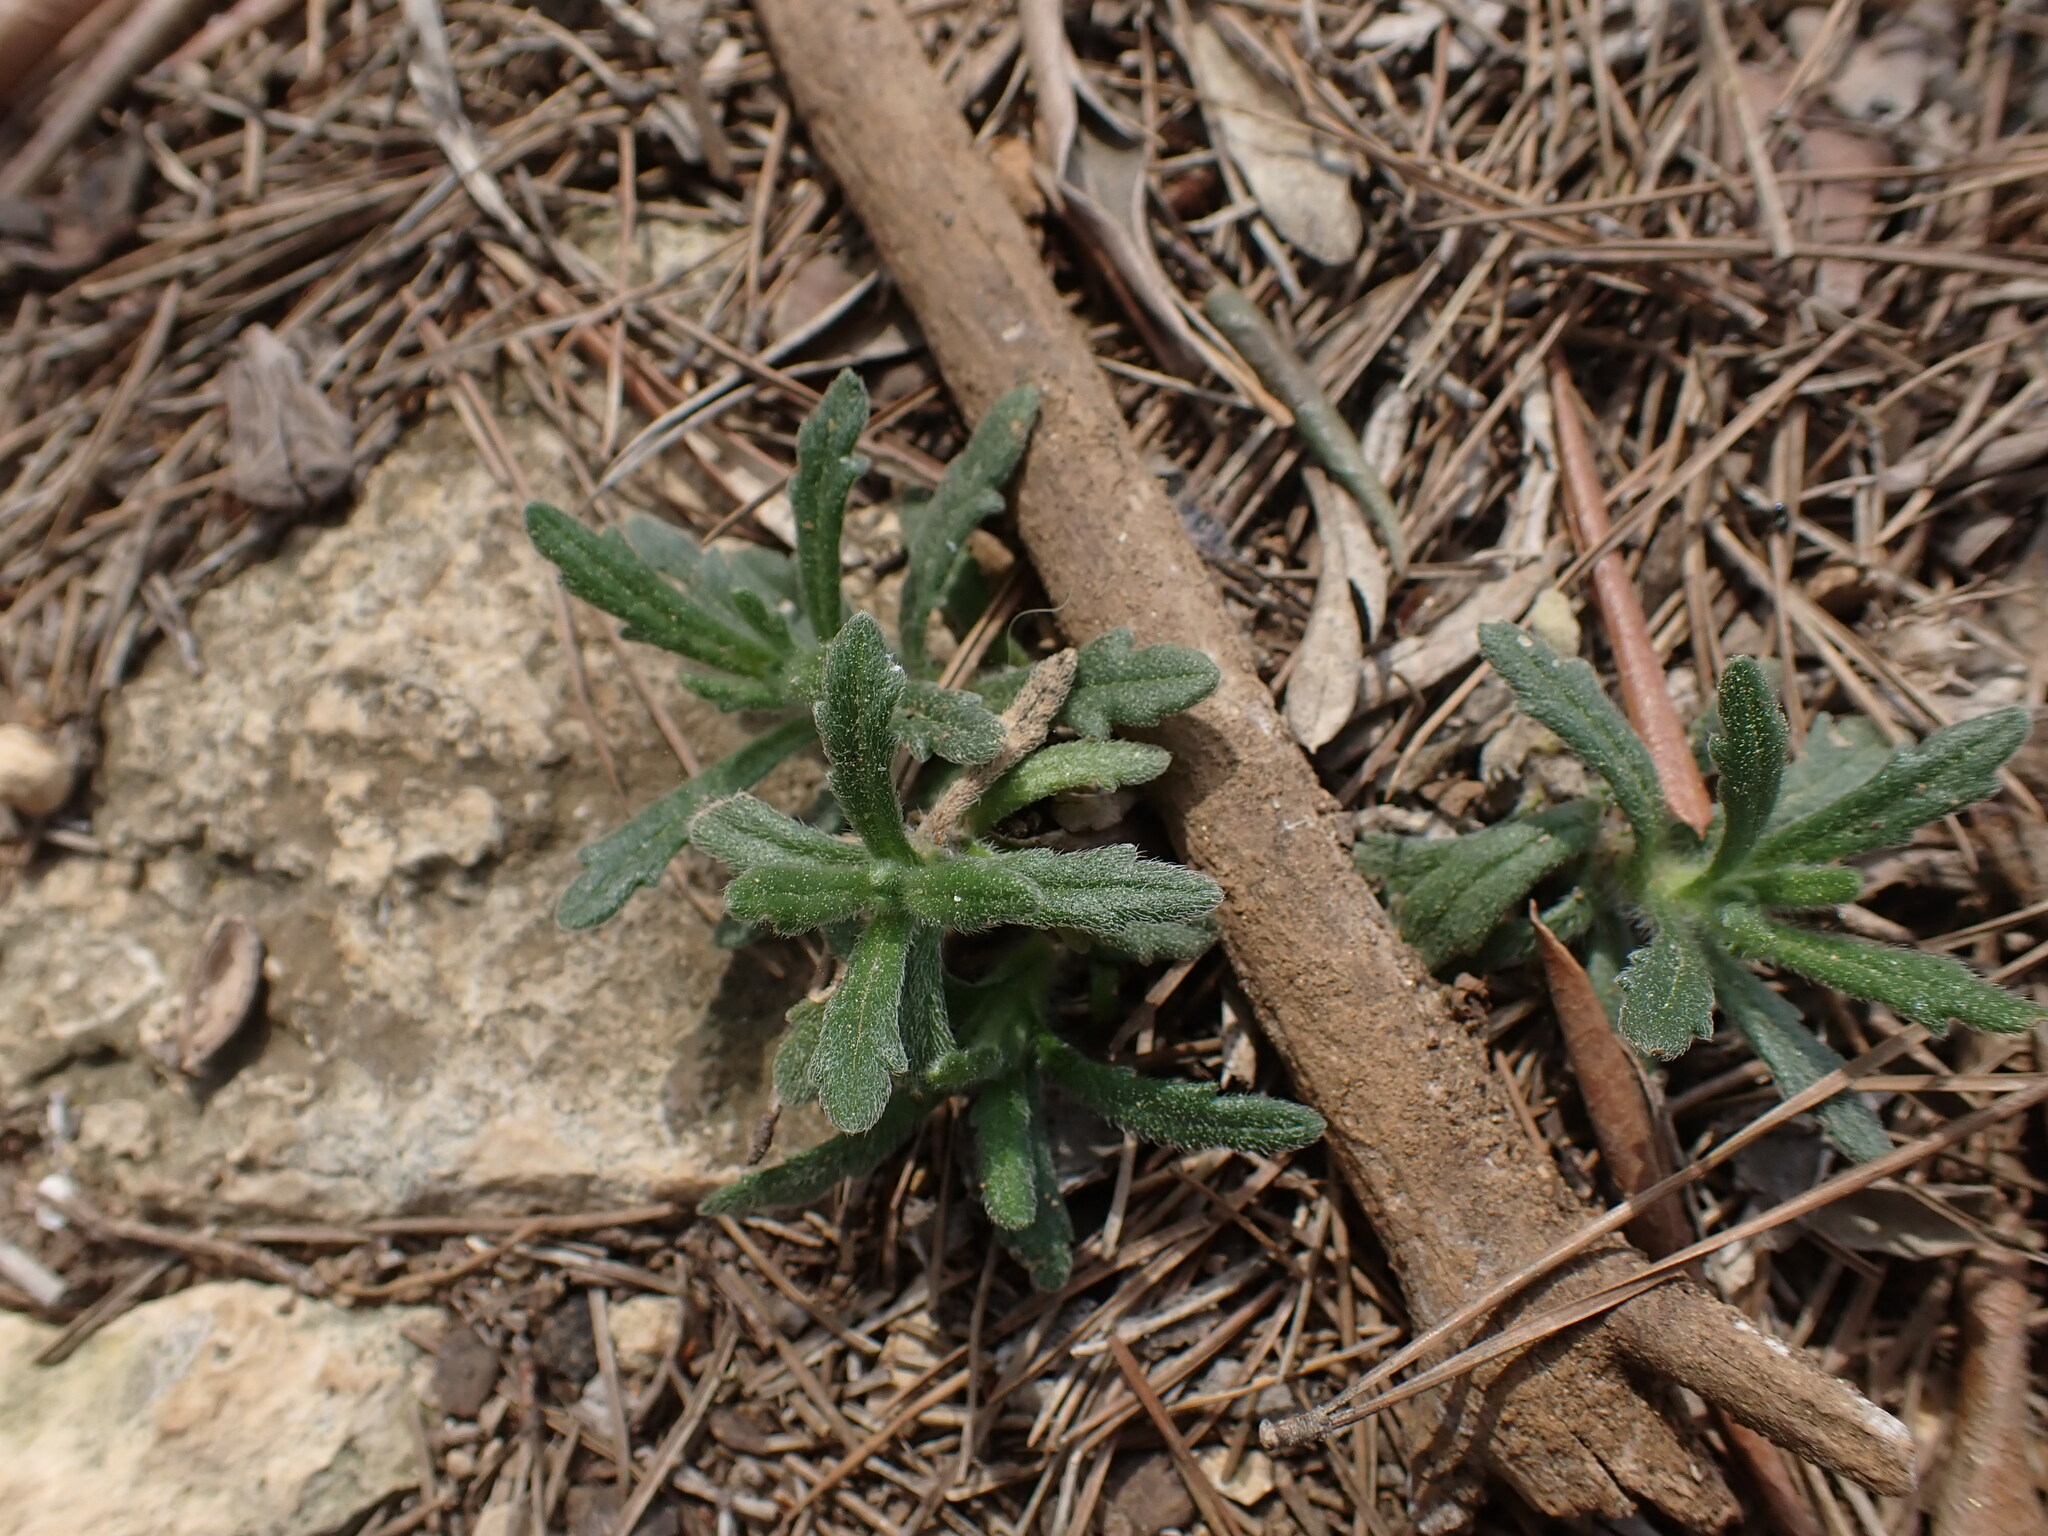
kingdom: Plantae
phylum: Tracheophyta
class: Magnoliopsida
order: Lamiales
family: Lamiaceae
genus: Ajuga
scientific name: Ajuga iva
